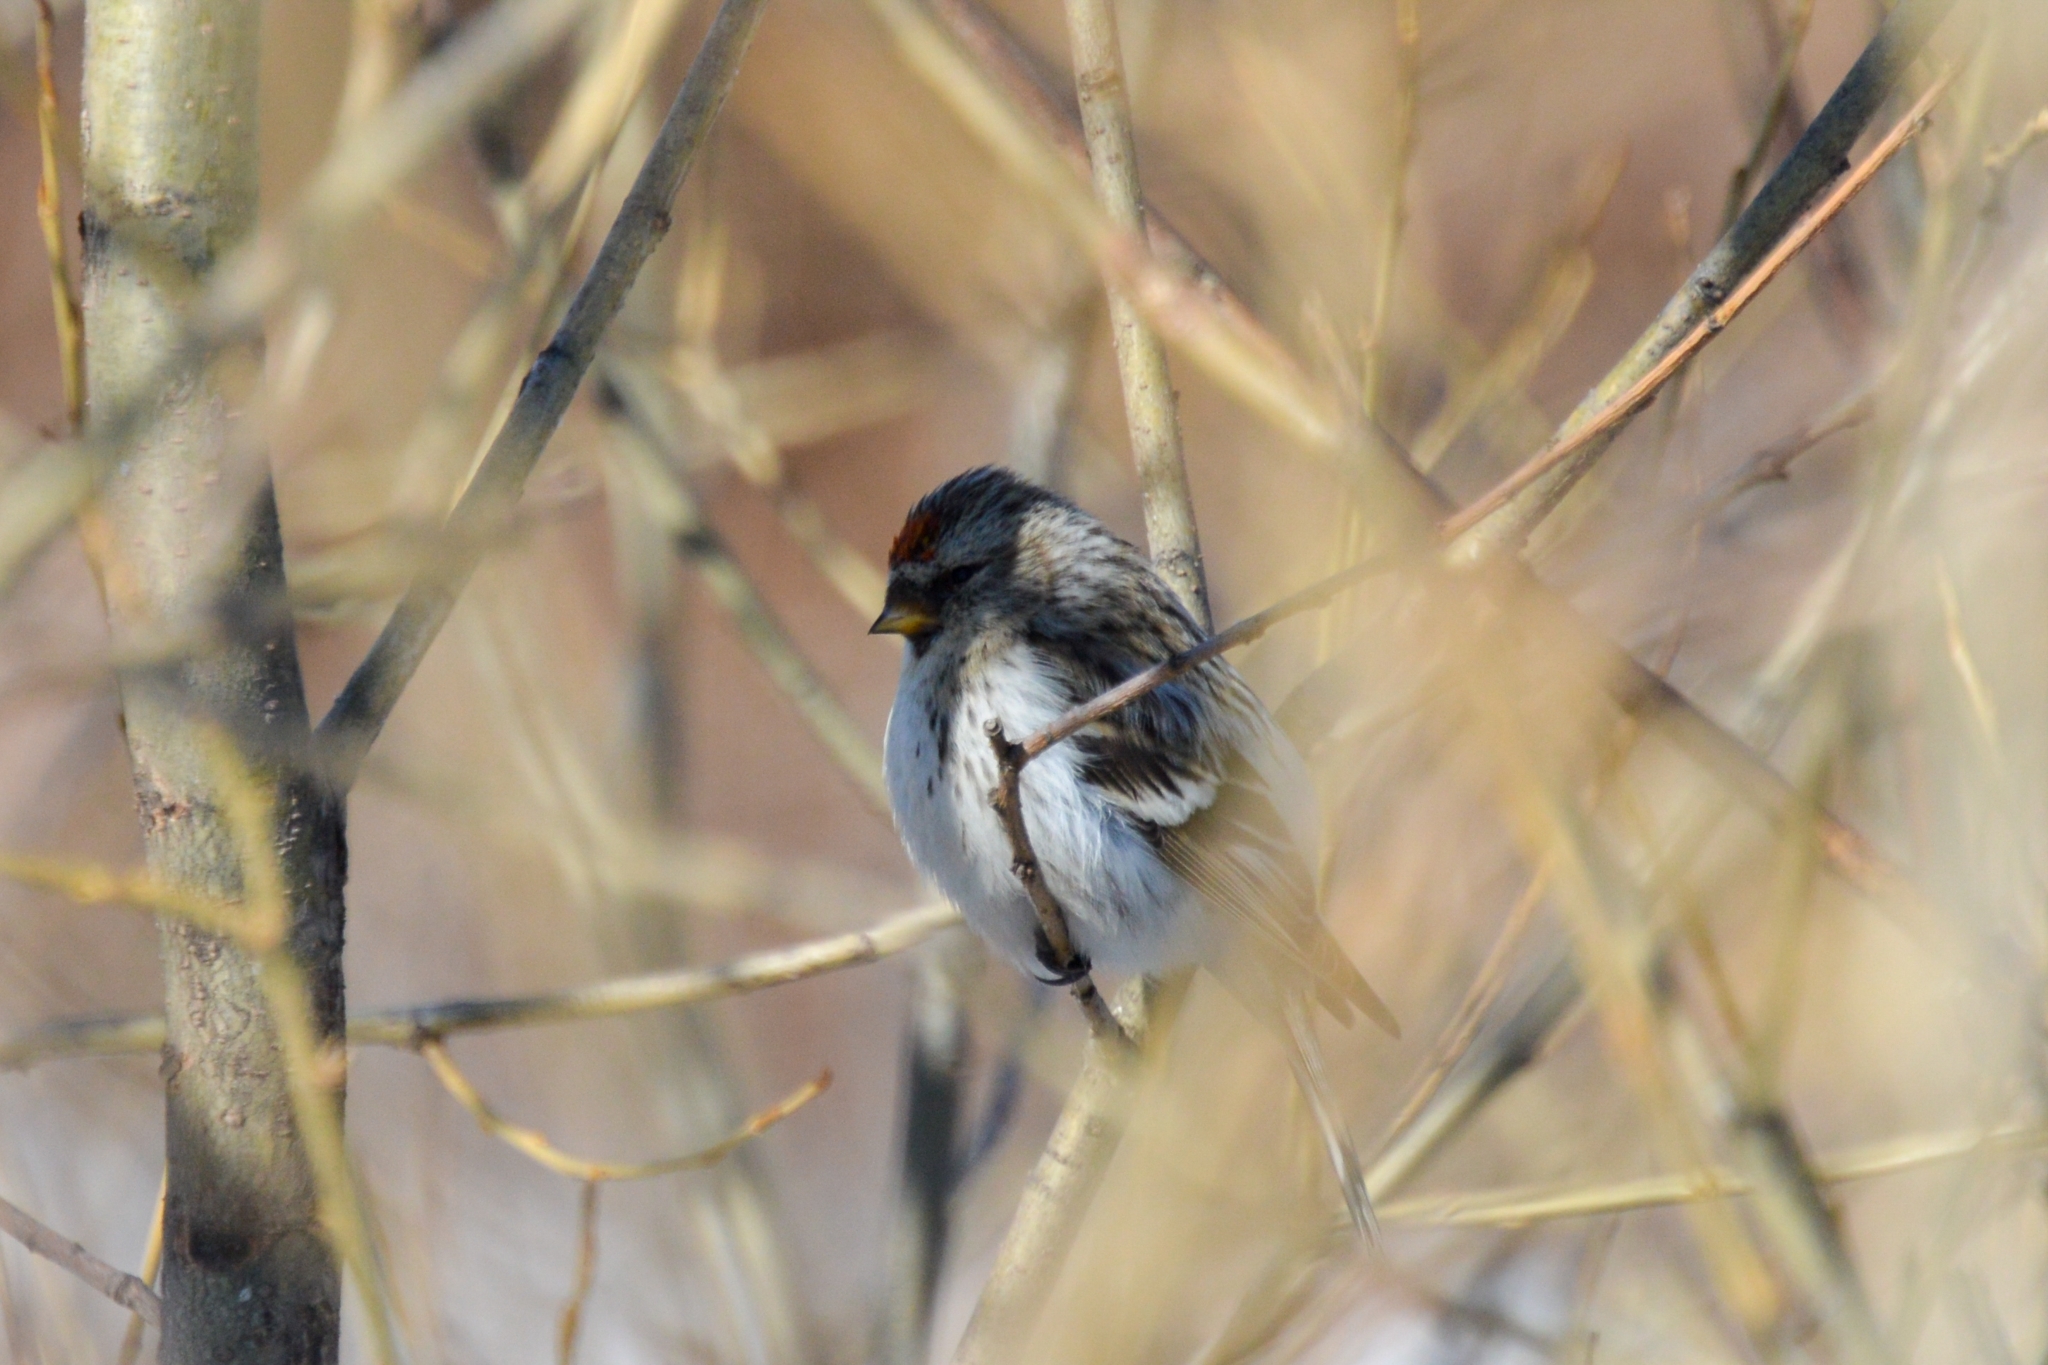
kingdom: Animalia
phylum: Chordata
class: Aves
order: Passeriformes
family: Fringillidae
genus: Acanthis
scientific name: Acanthis hornemanni
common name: Arctic redpoll
